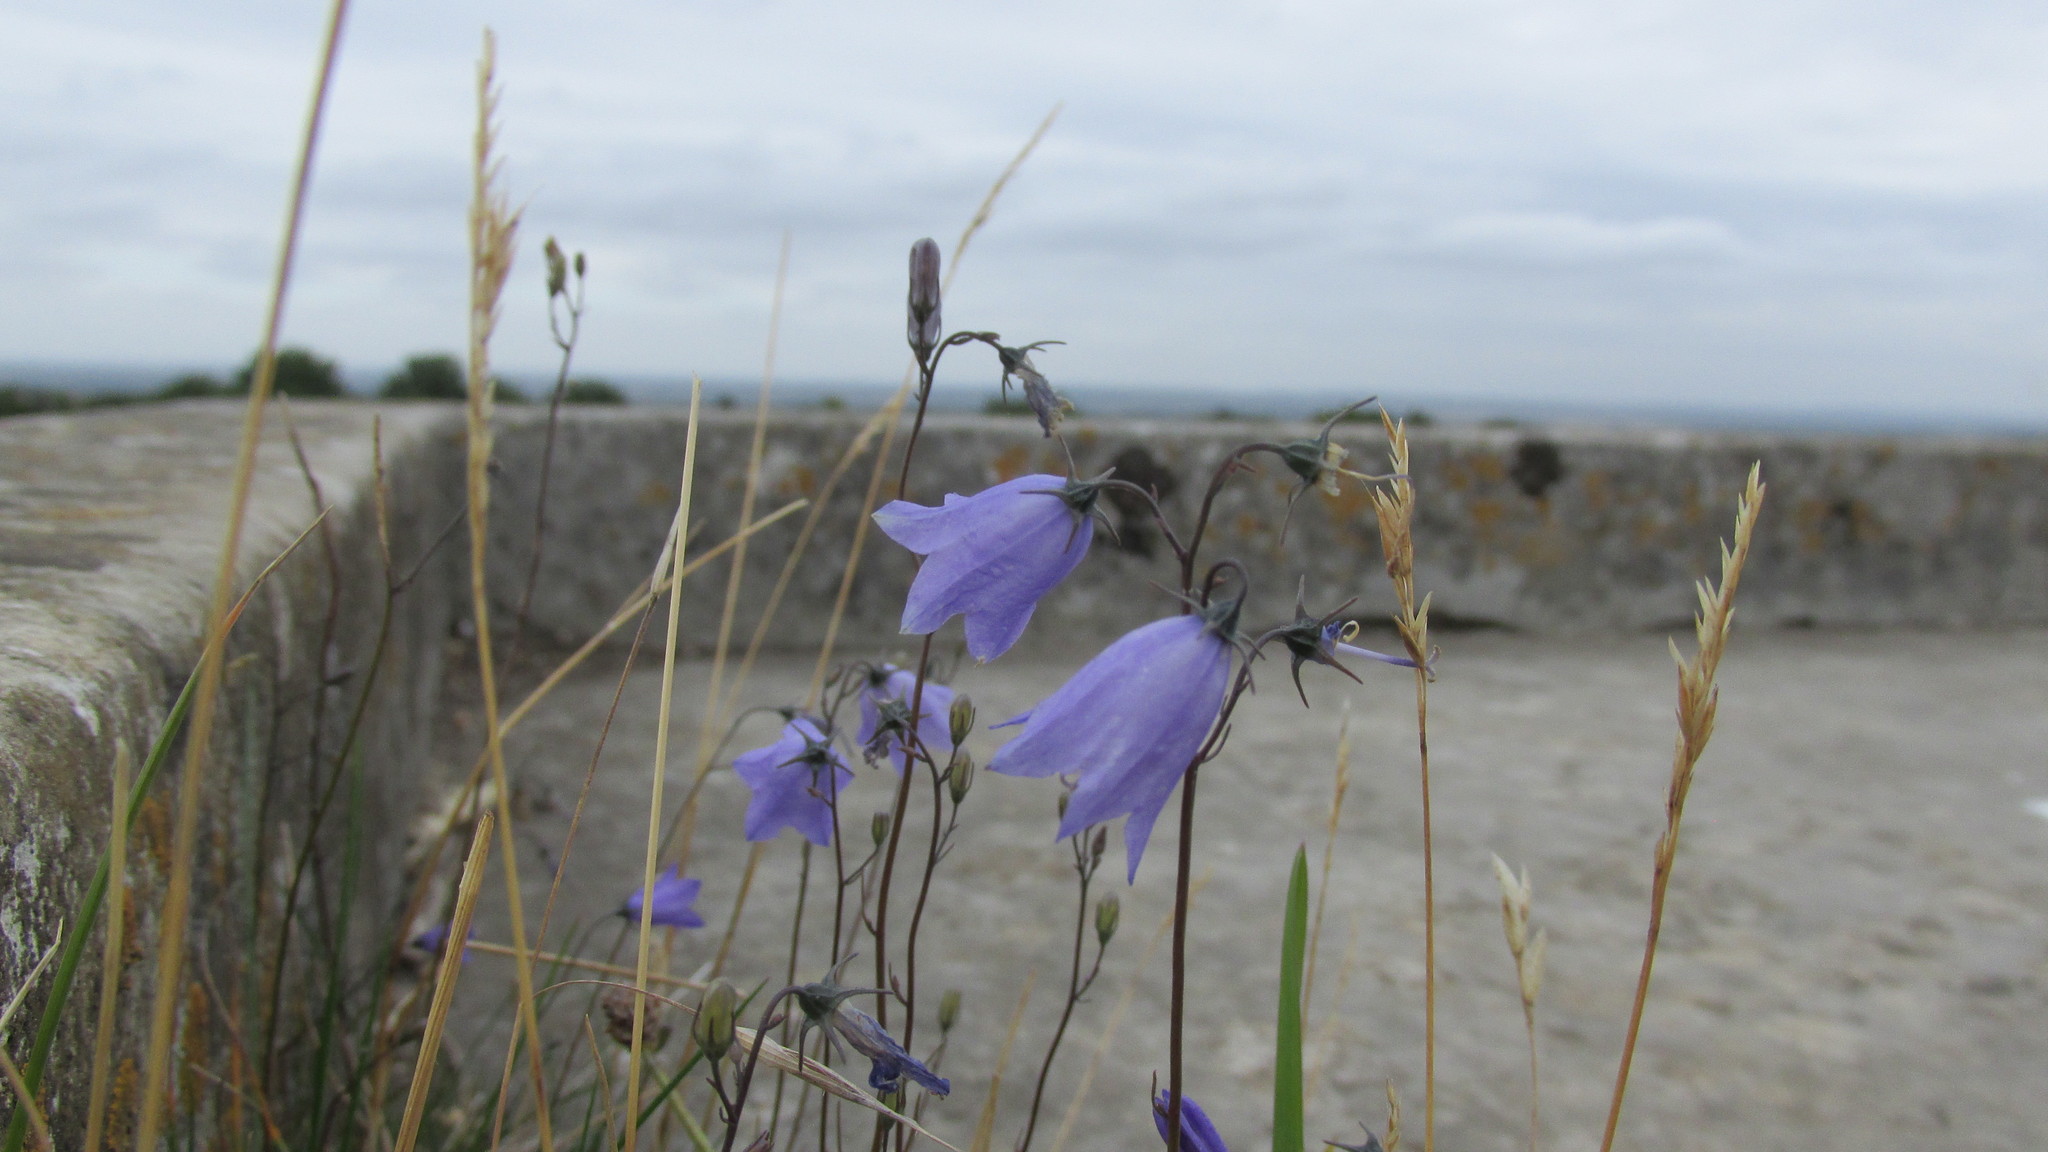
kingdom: Plantae
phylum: Tracheophyta
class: Magnoliopsida
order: Asterales
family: Campanulaceae
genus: Campanula
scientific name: Campanula rotundifolia
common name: Harebell
